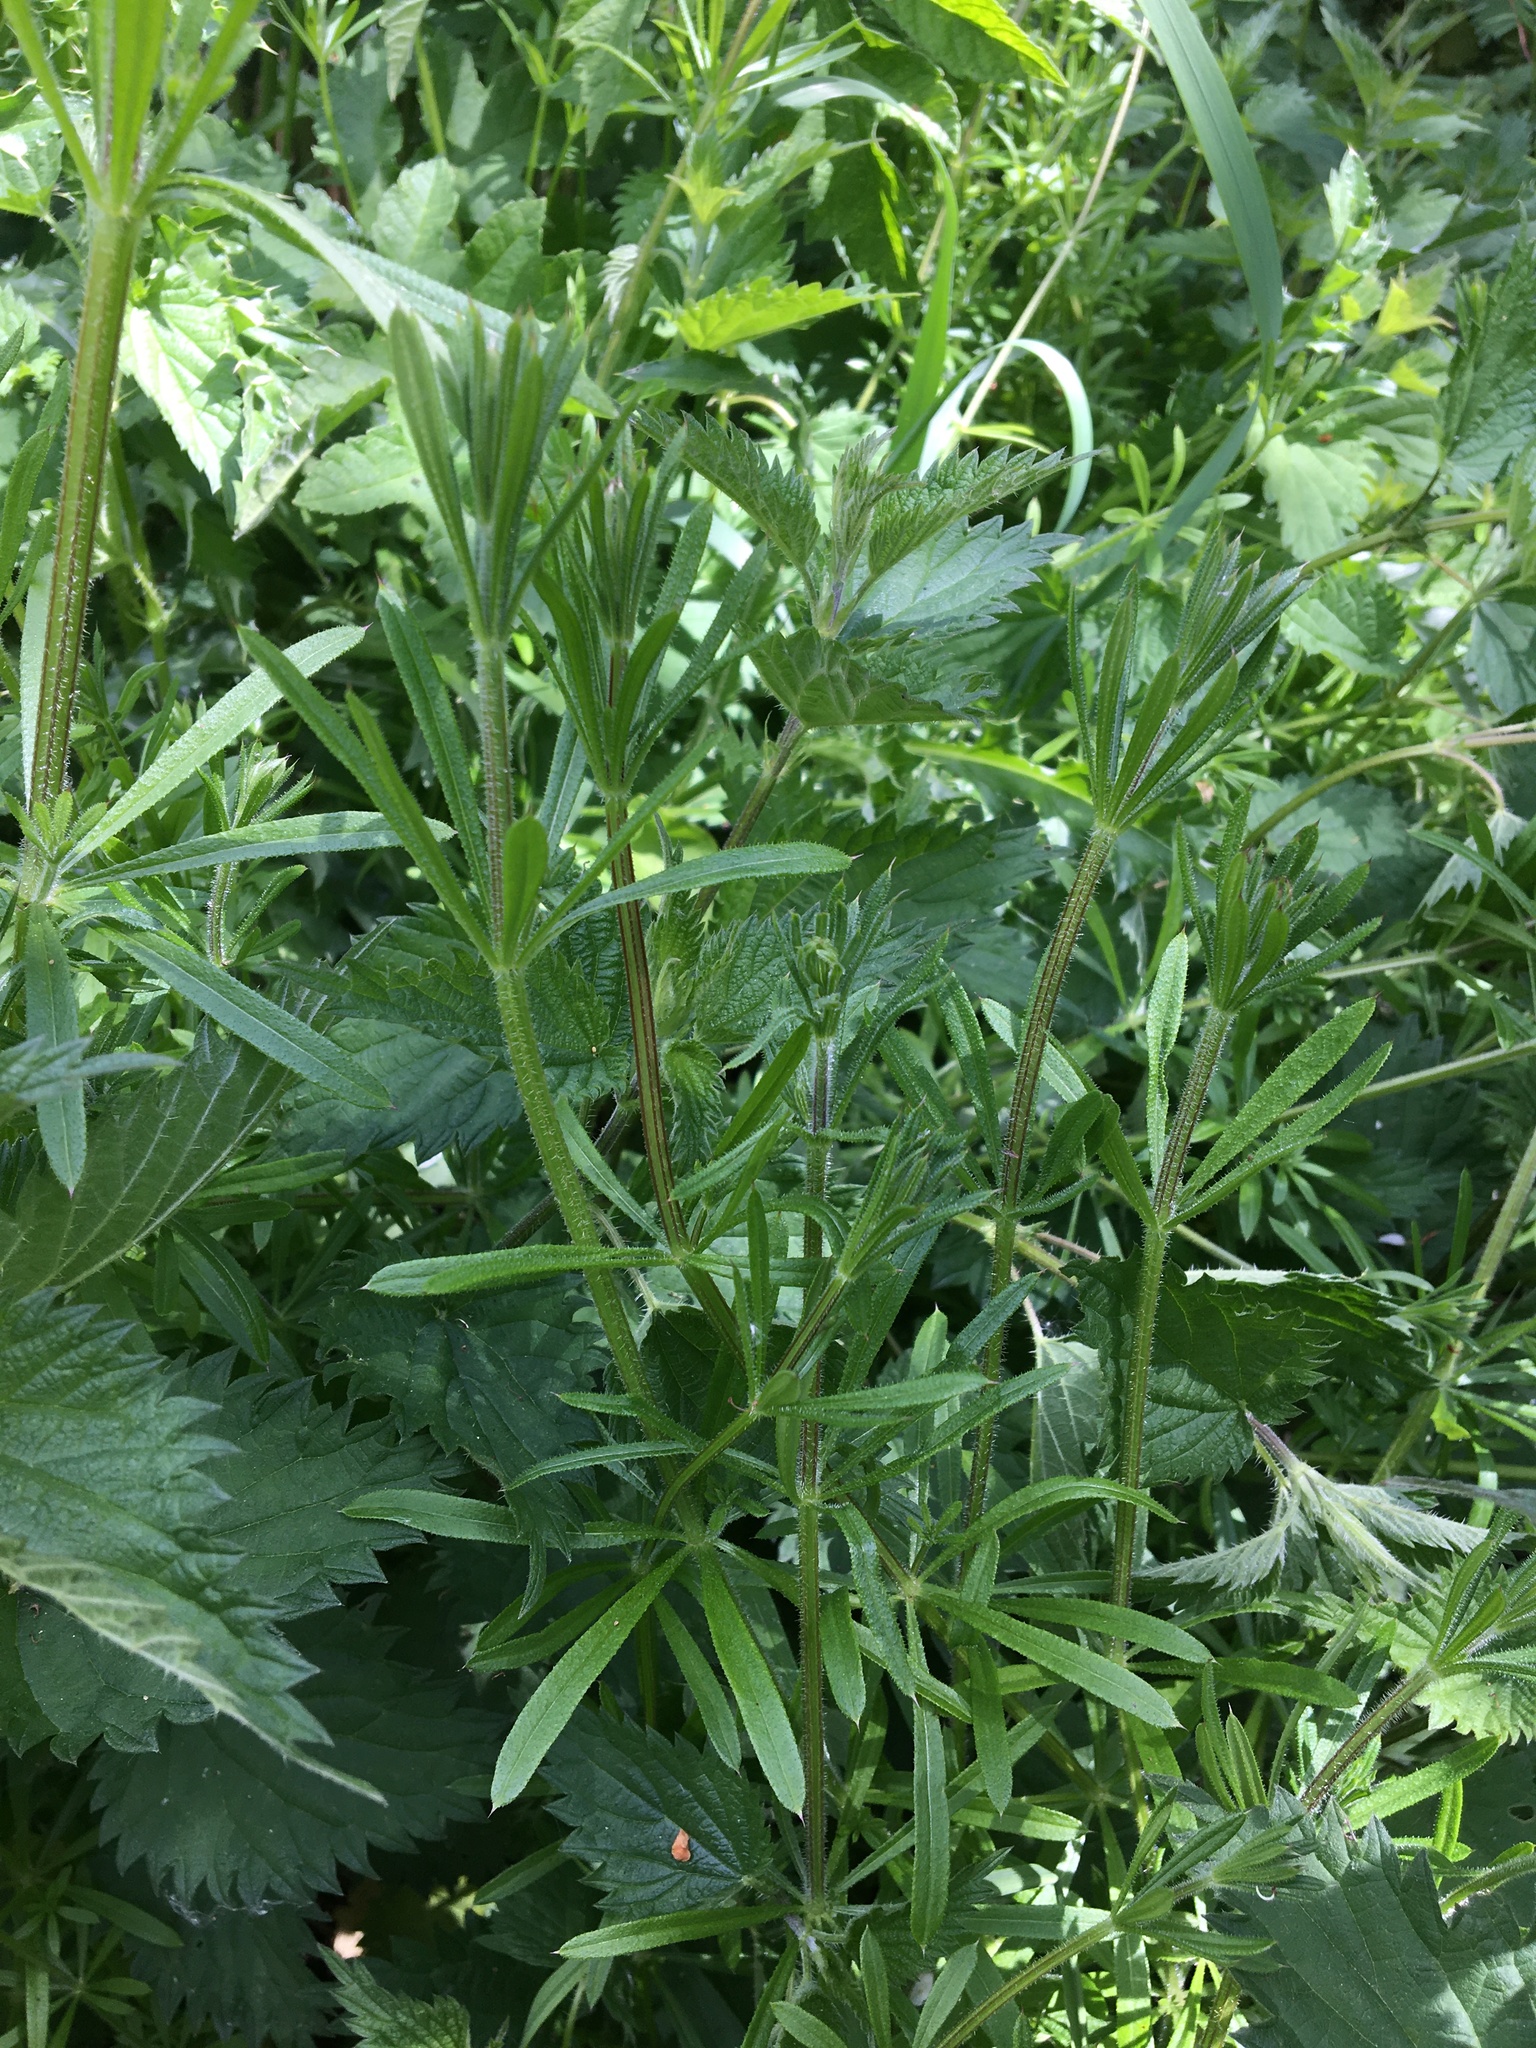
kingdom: Plantae
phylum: Tracheophyta
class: Magnoliopsida
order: Gentianales
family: Rubiaceae
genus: Galium
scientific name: Galium aparine
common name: Cleavers
